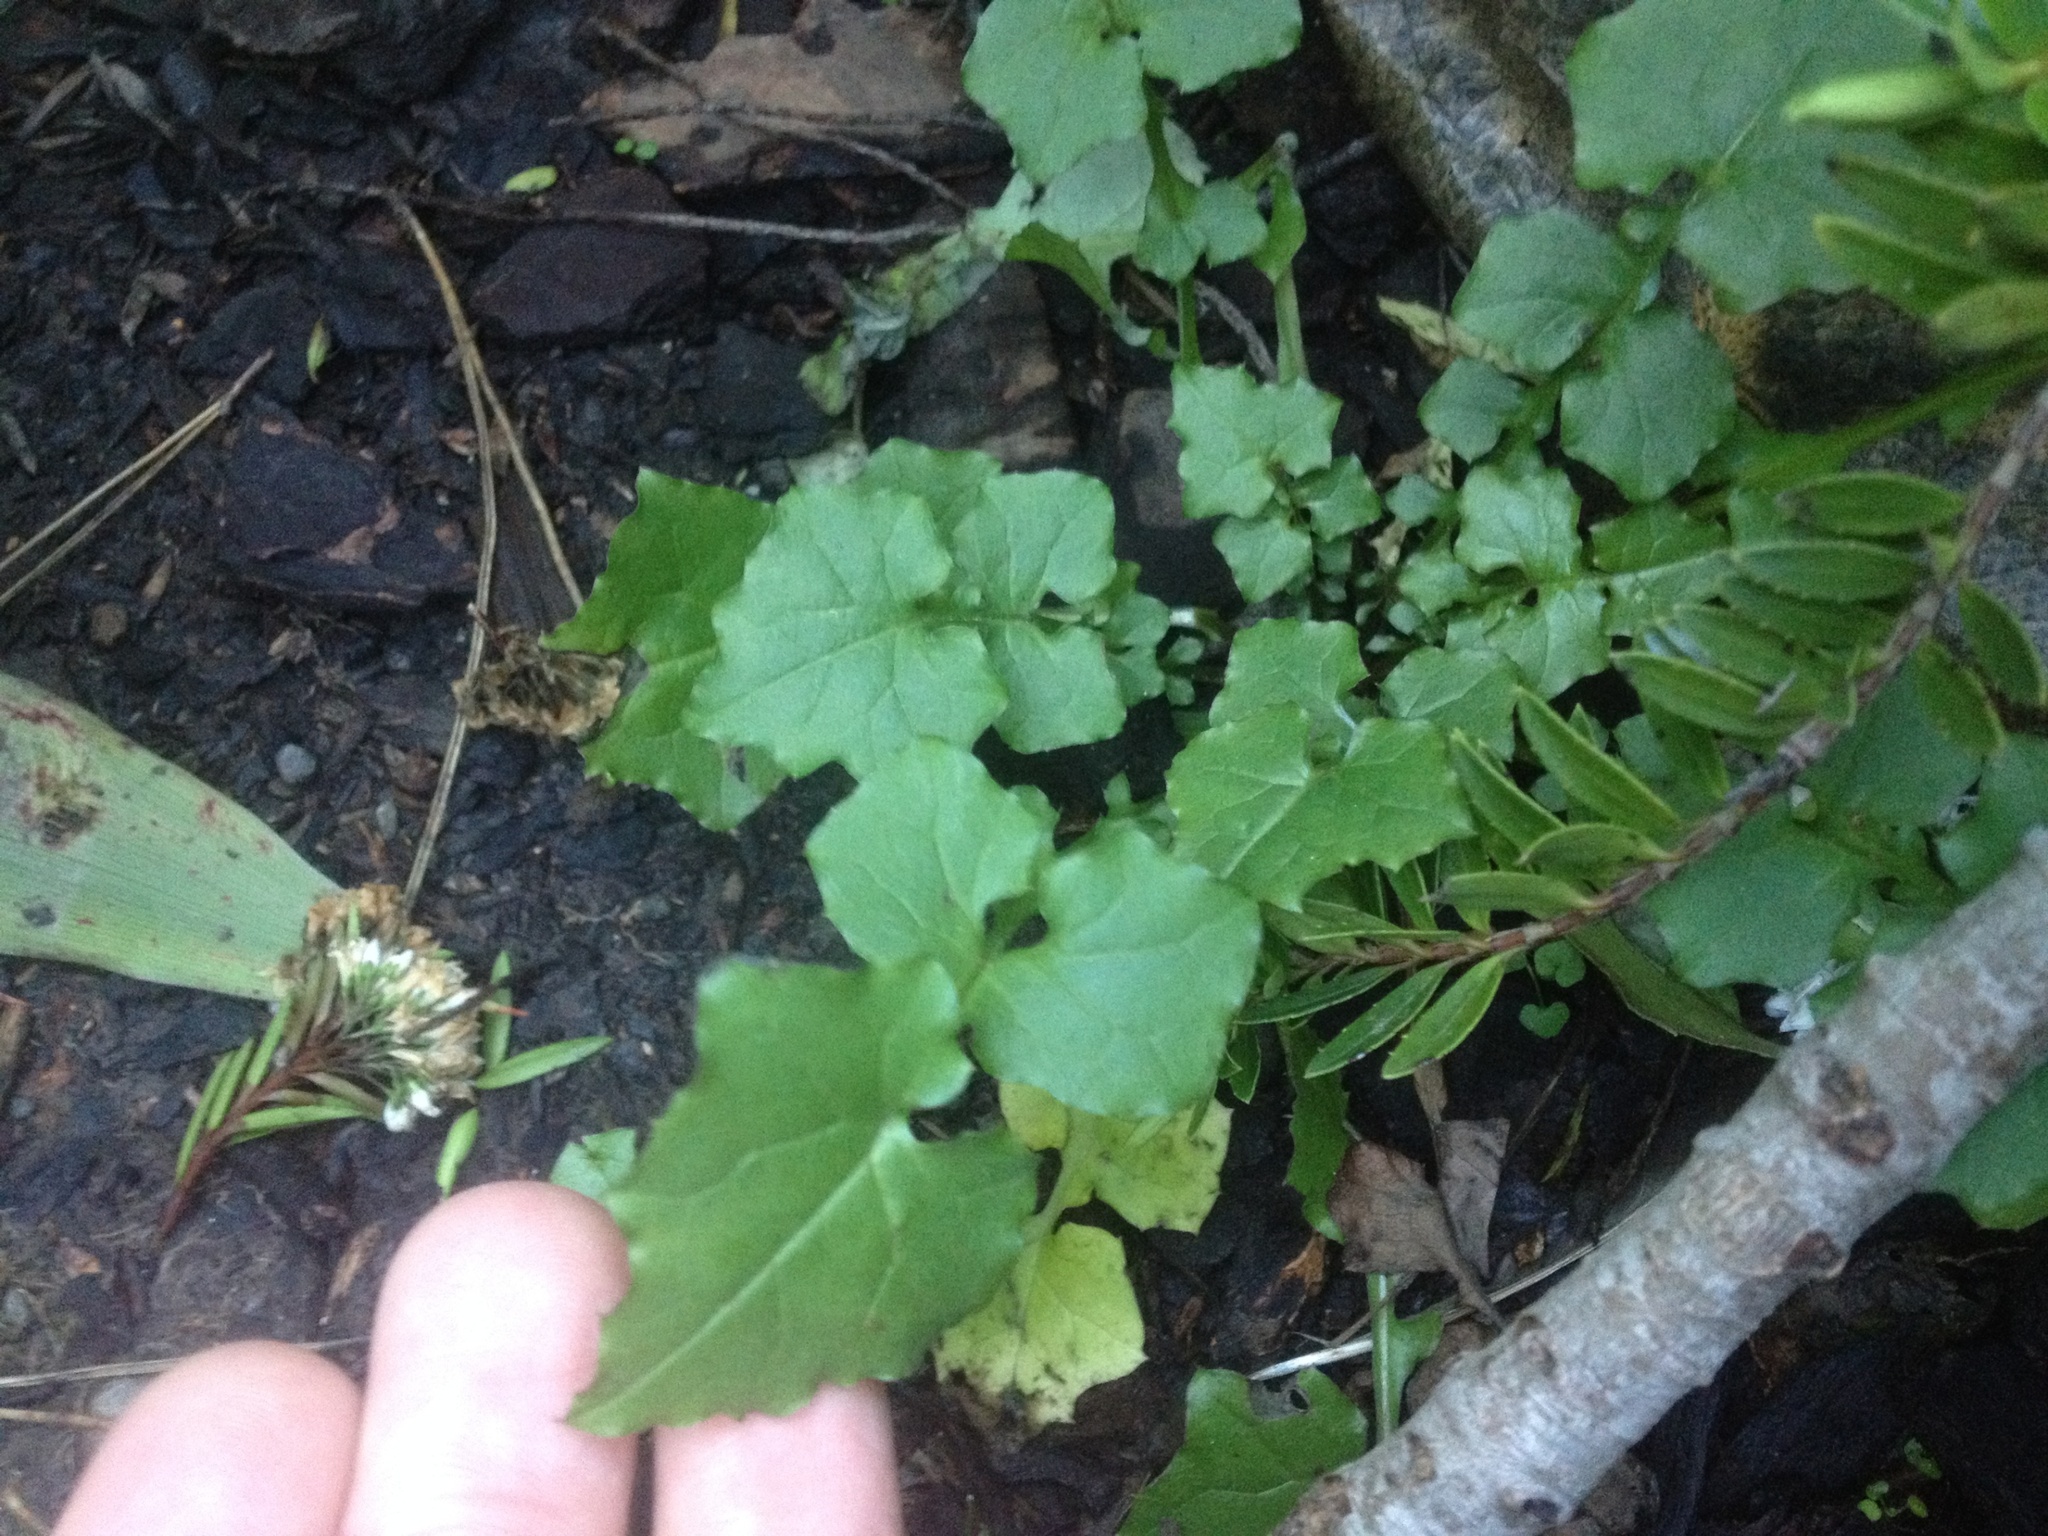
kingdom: Plantae
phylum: Tracheophyta
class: Magnoliopsida
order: Asterales
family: Asteraceae
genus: Mycelis
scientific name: Mycelis muralis
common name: Wall lettuce
